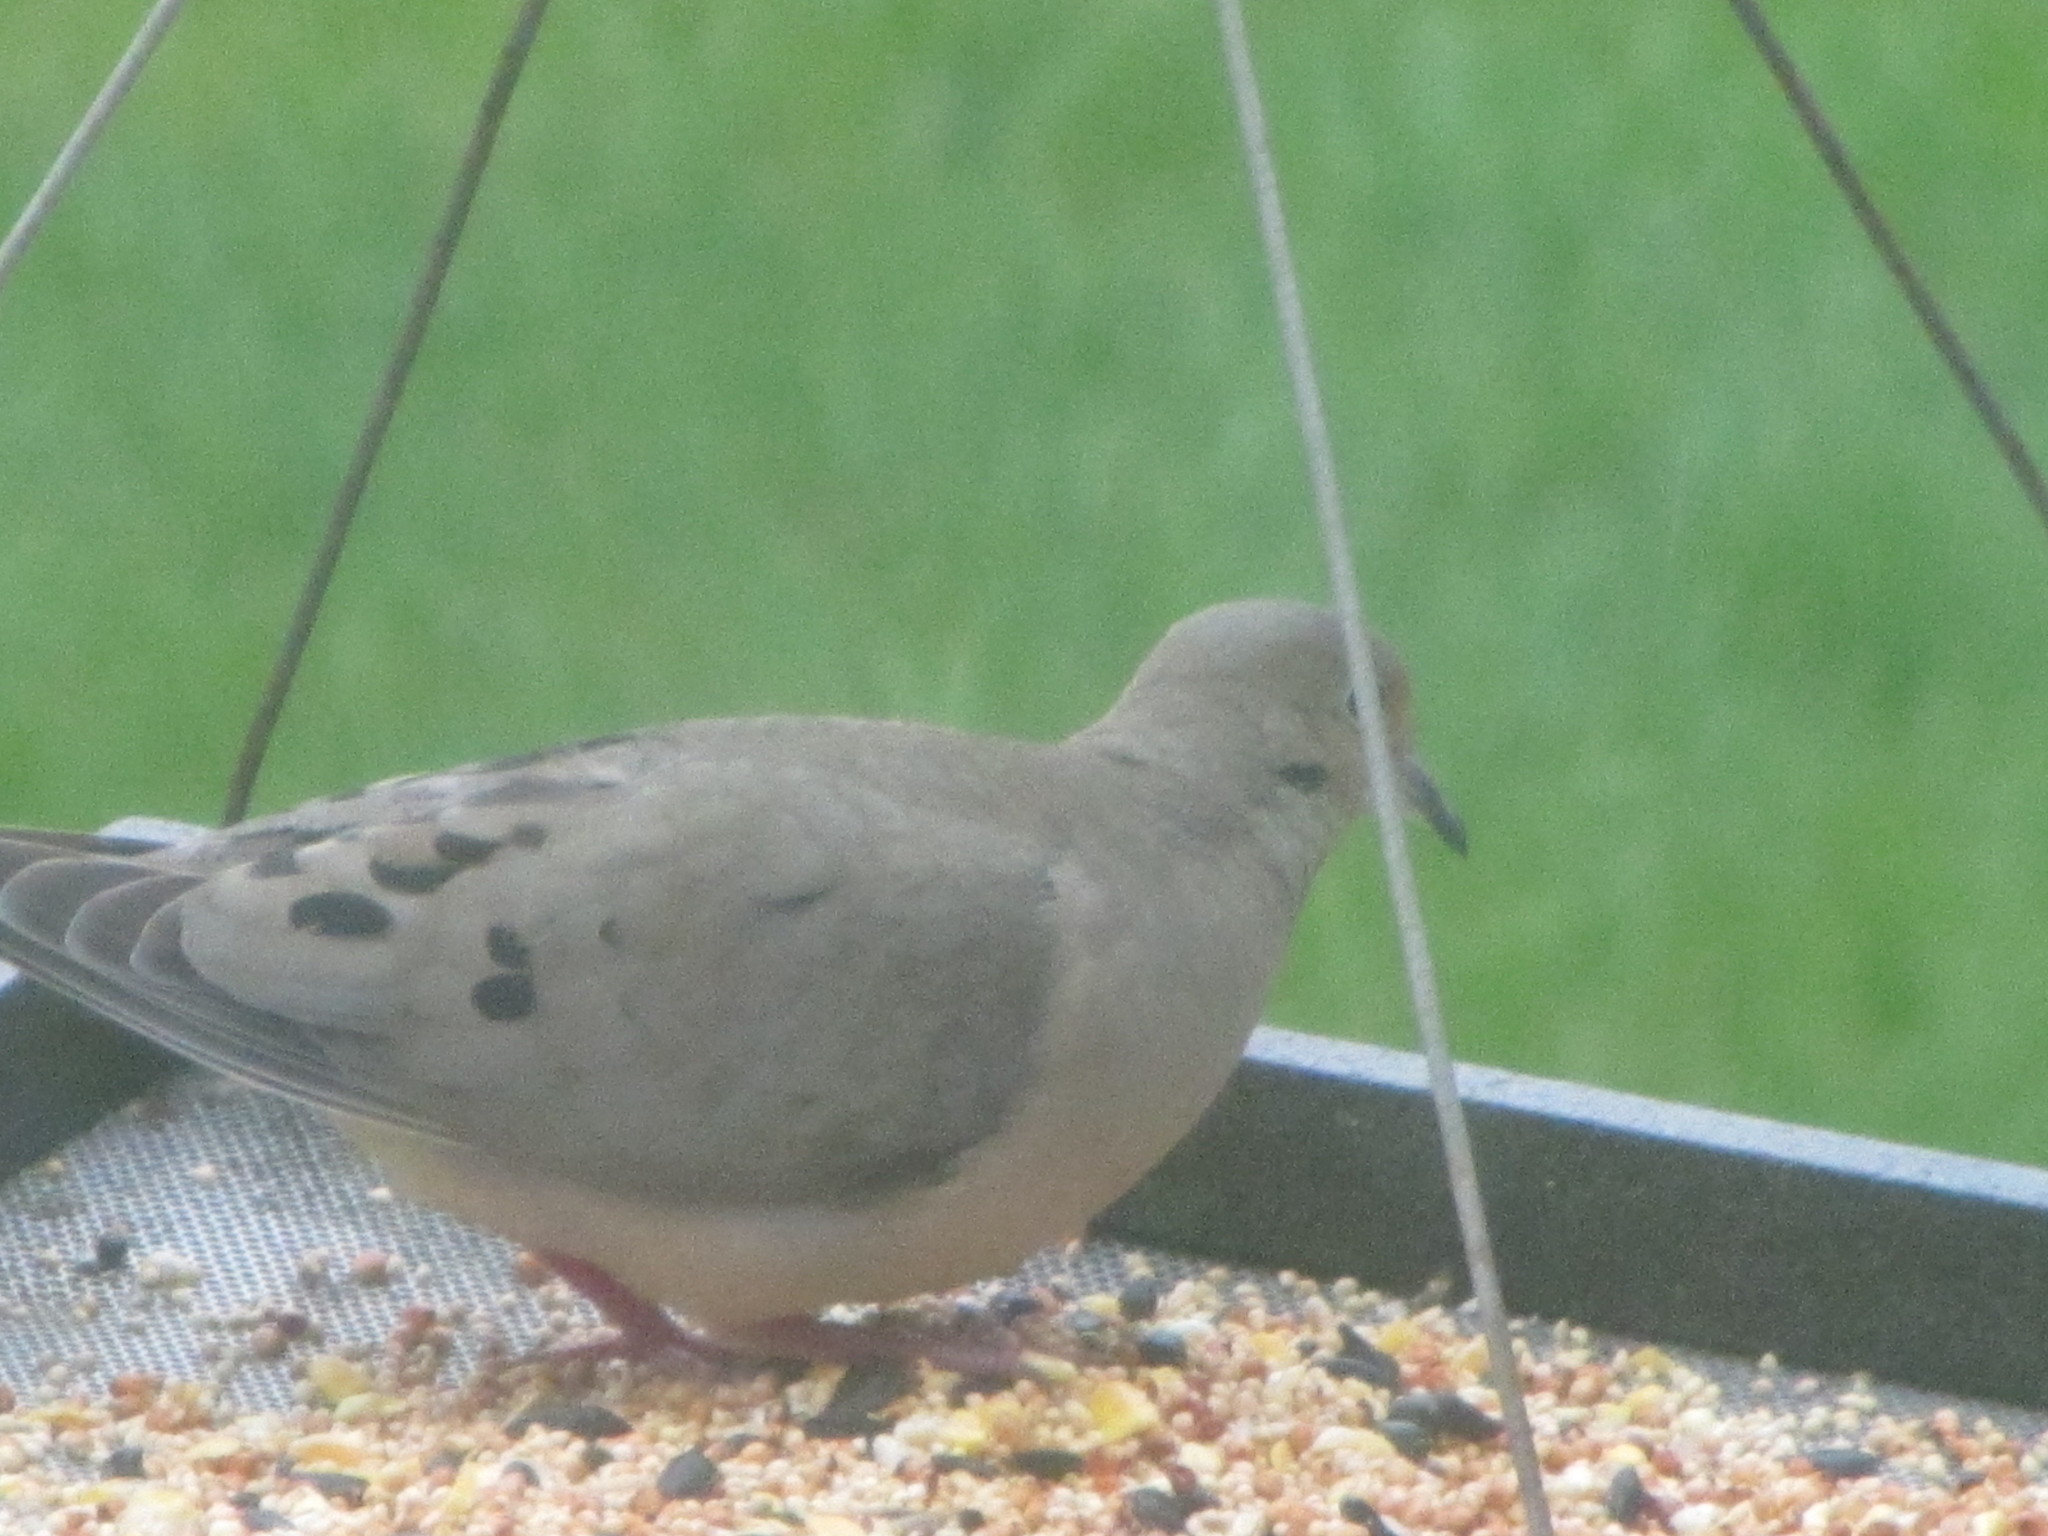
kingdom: Animalia
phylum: Chordata
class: Aves
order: Columbiformes
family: Columbidae
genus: Zenaida
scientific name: Zenaida macroura
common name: Mourning dove
